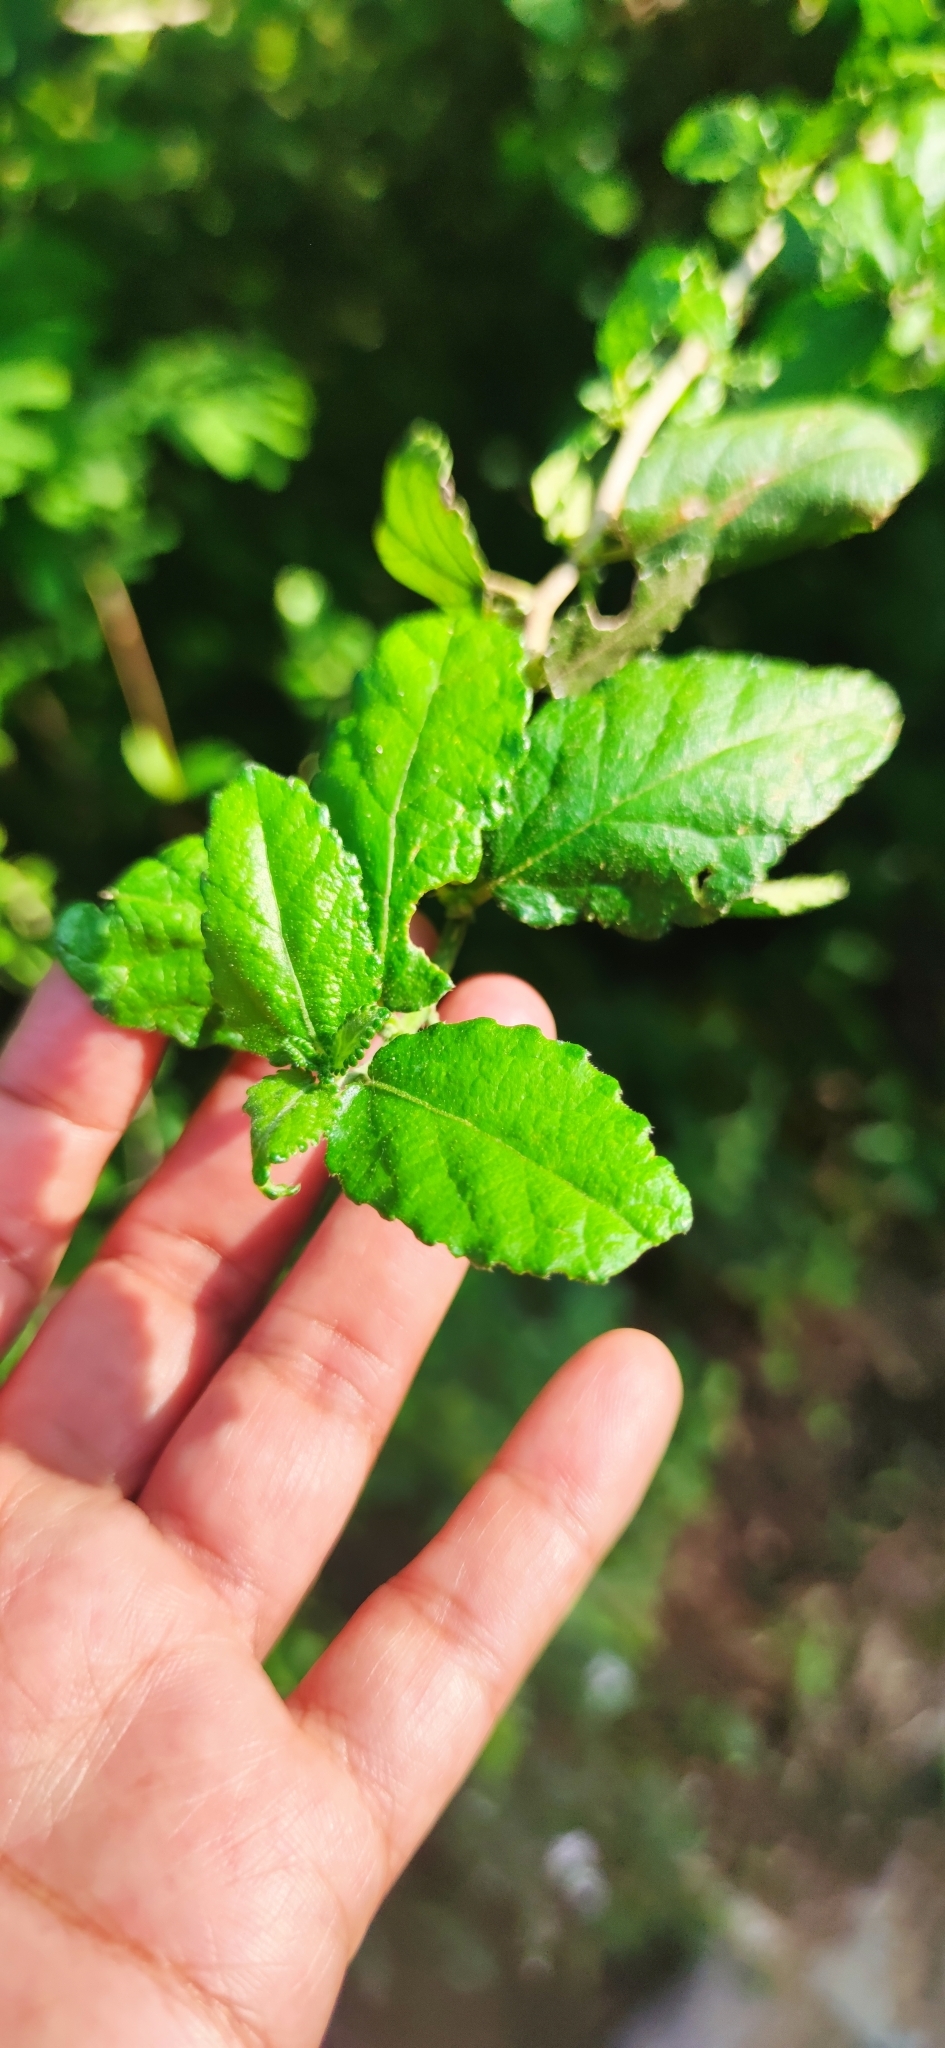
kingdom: Plantae
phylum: Tracheophyta
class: Magnoliopsida
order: Malpighiales
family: Euphorbiaceae
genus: Bernardia
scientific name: Bernardia myricifolia
